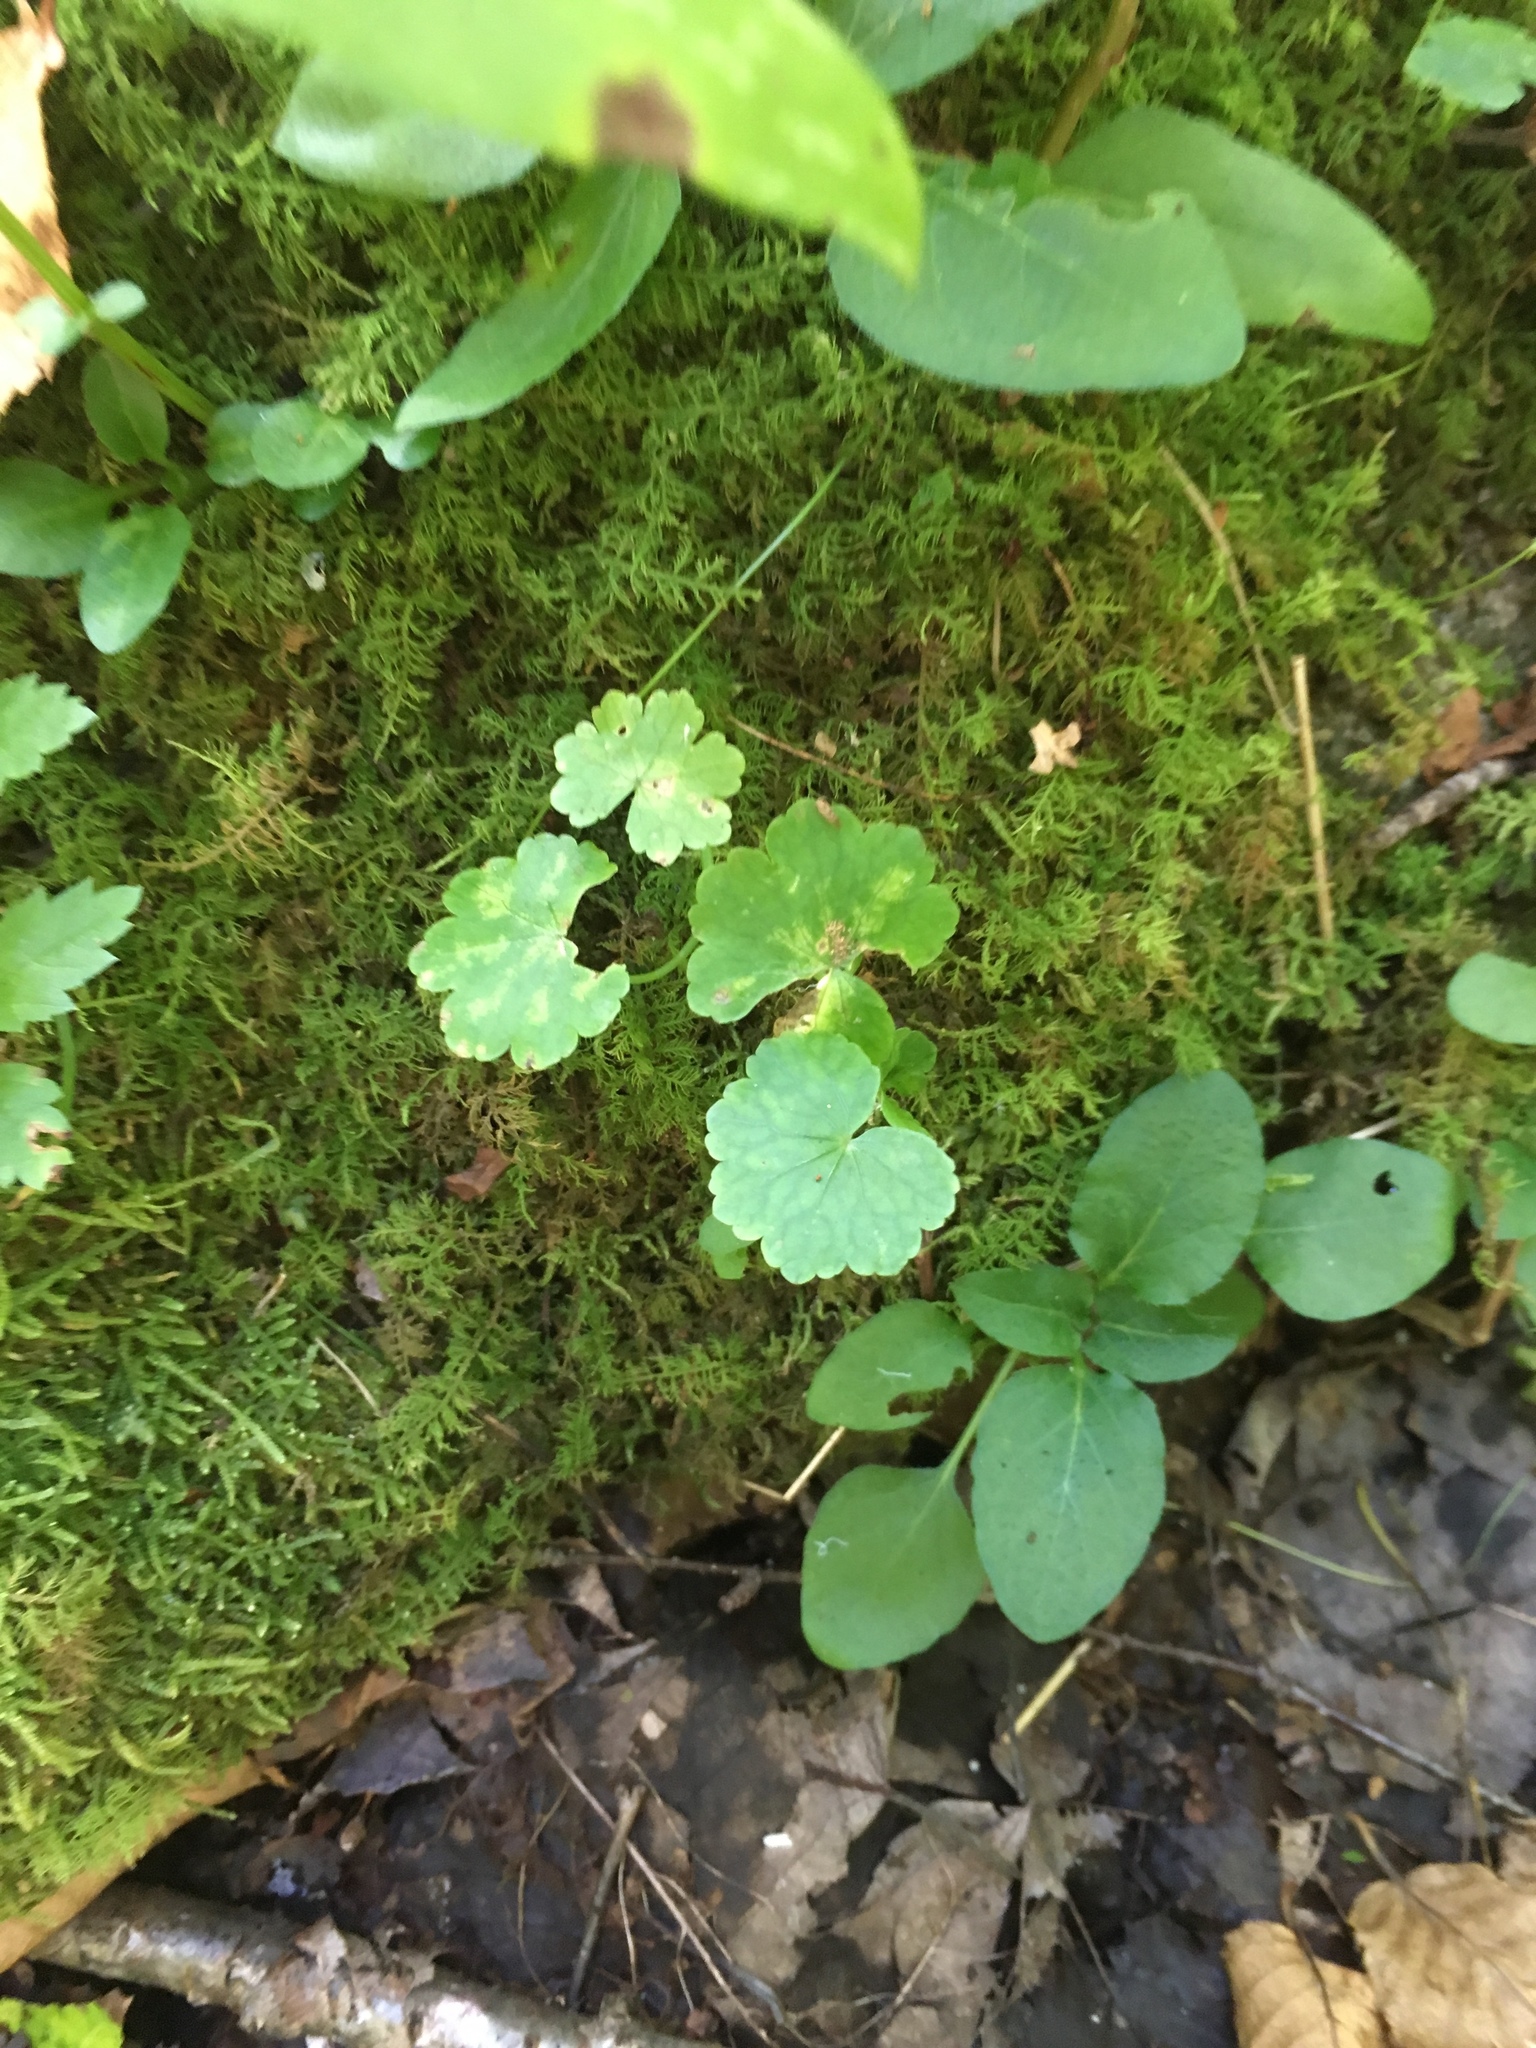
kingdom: Plantae
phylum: Tracheophyta
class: Magnoliopsida
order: Apiales
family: Araliaceae
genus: Hydrocotyle
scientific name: Hydrocotyle americana
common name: American water-pennywort
